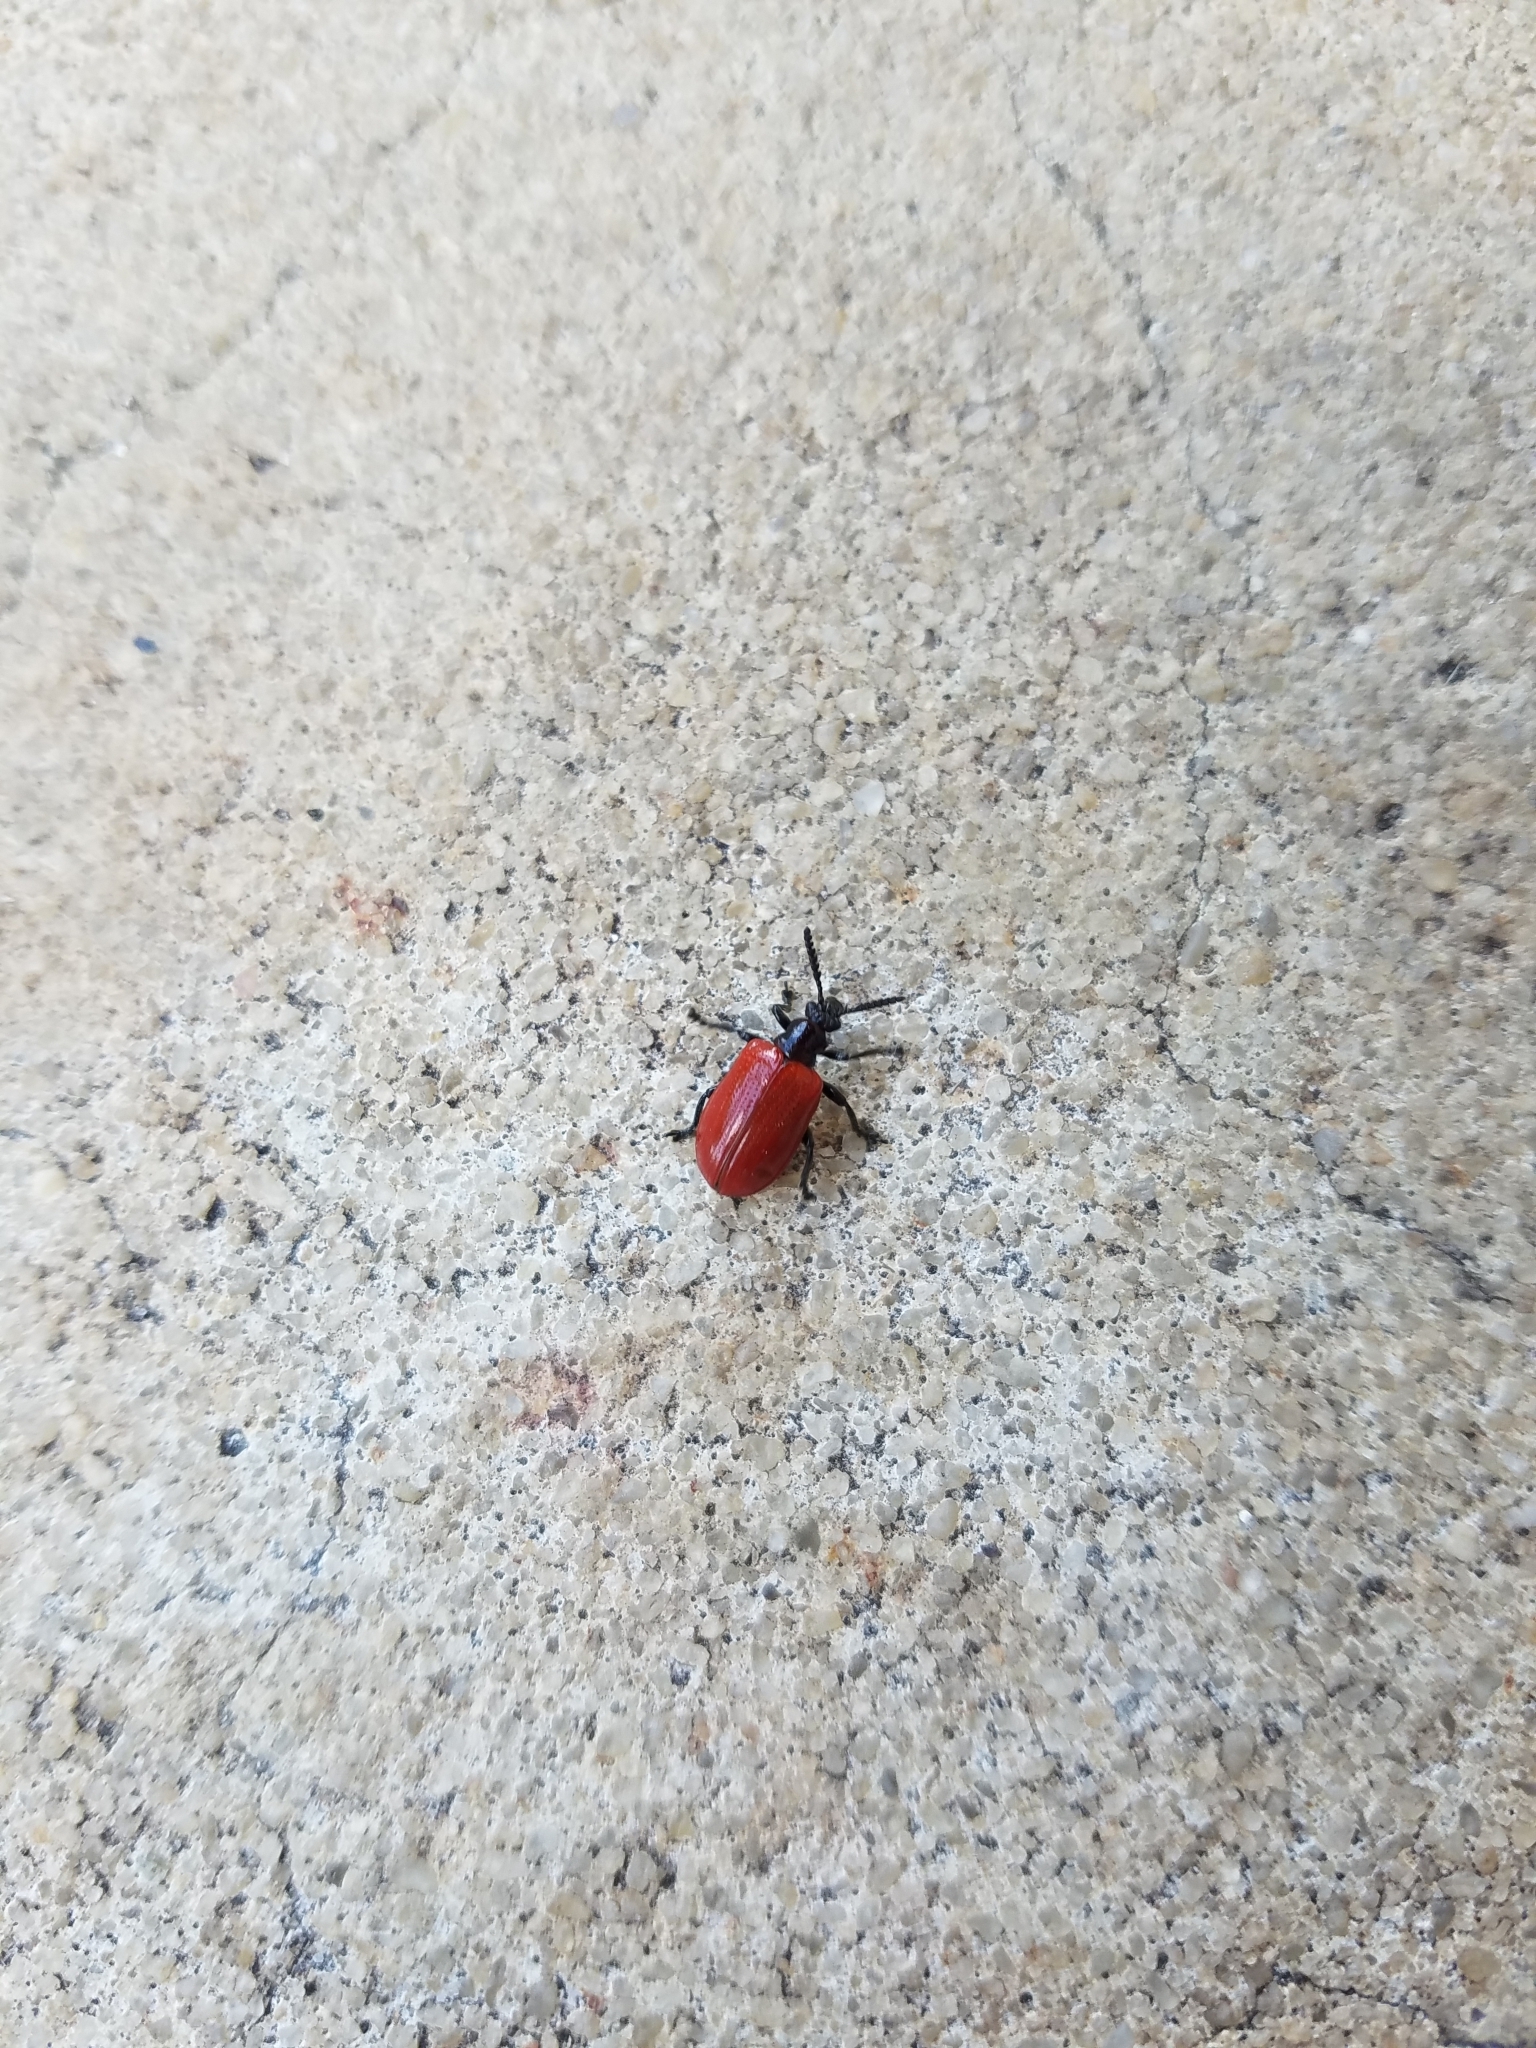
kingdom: Animalia
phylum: Arthropoda
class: Insecta
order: Coleoptera
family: Chrysomelidae
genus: Lilioceris
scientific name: Lilioceris cheni
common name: Leaf beetle
